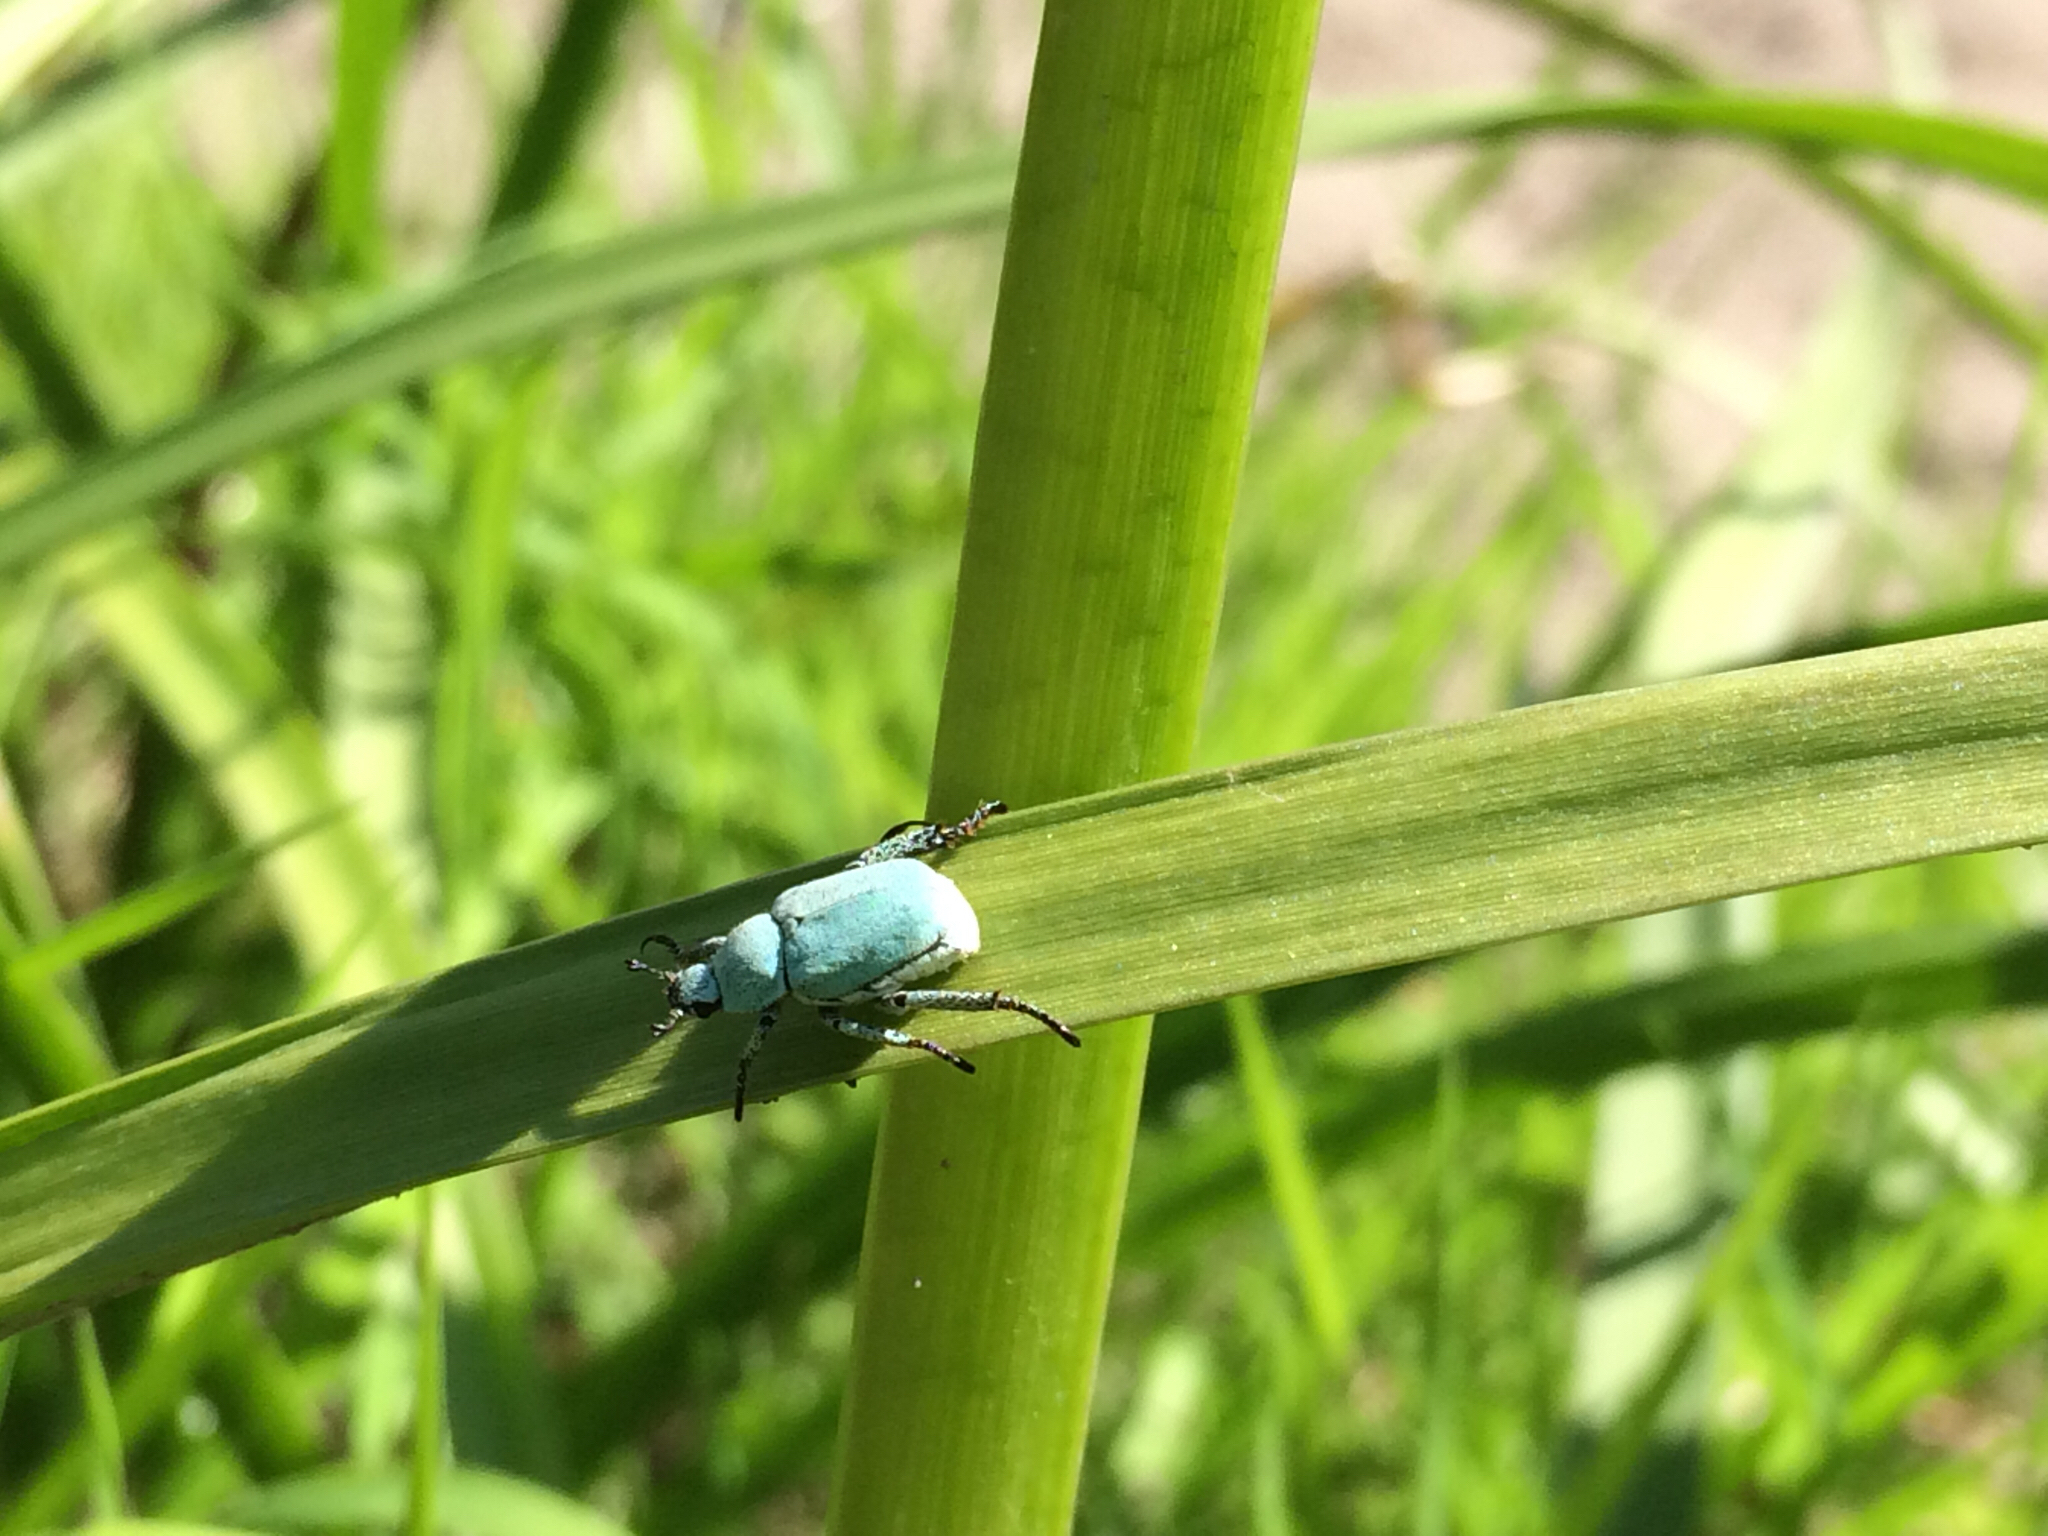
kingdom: Animalia
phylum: Arthropoda
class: Insecta
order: Coleoptera
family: Scarabaeidae
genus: Hoplia
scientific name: Hoplia parvula
